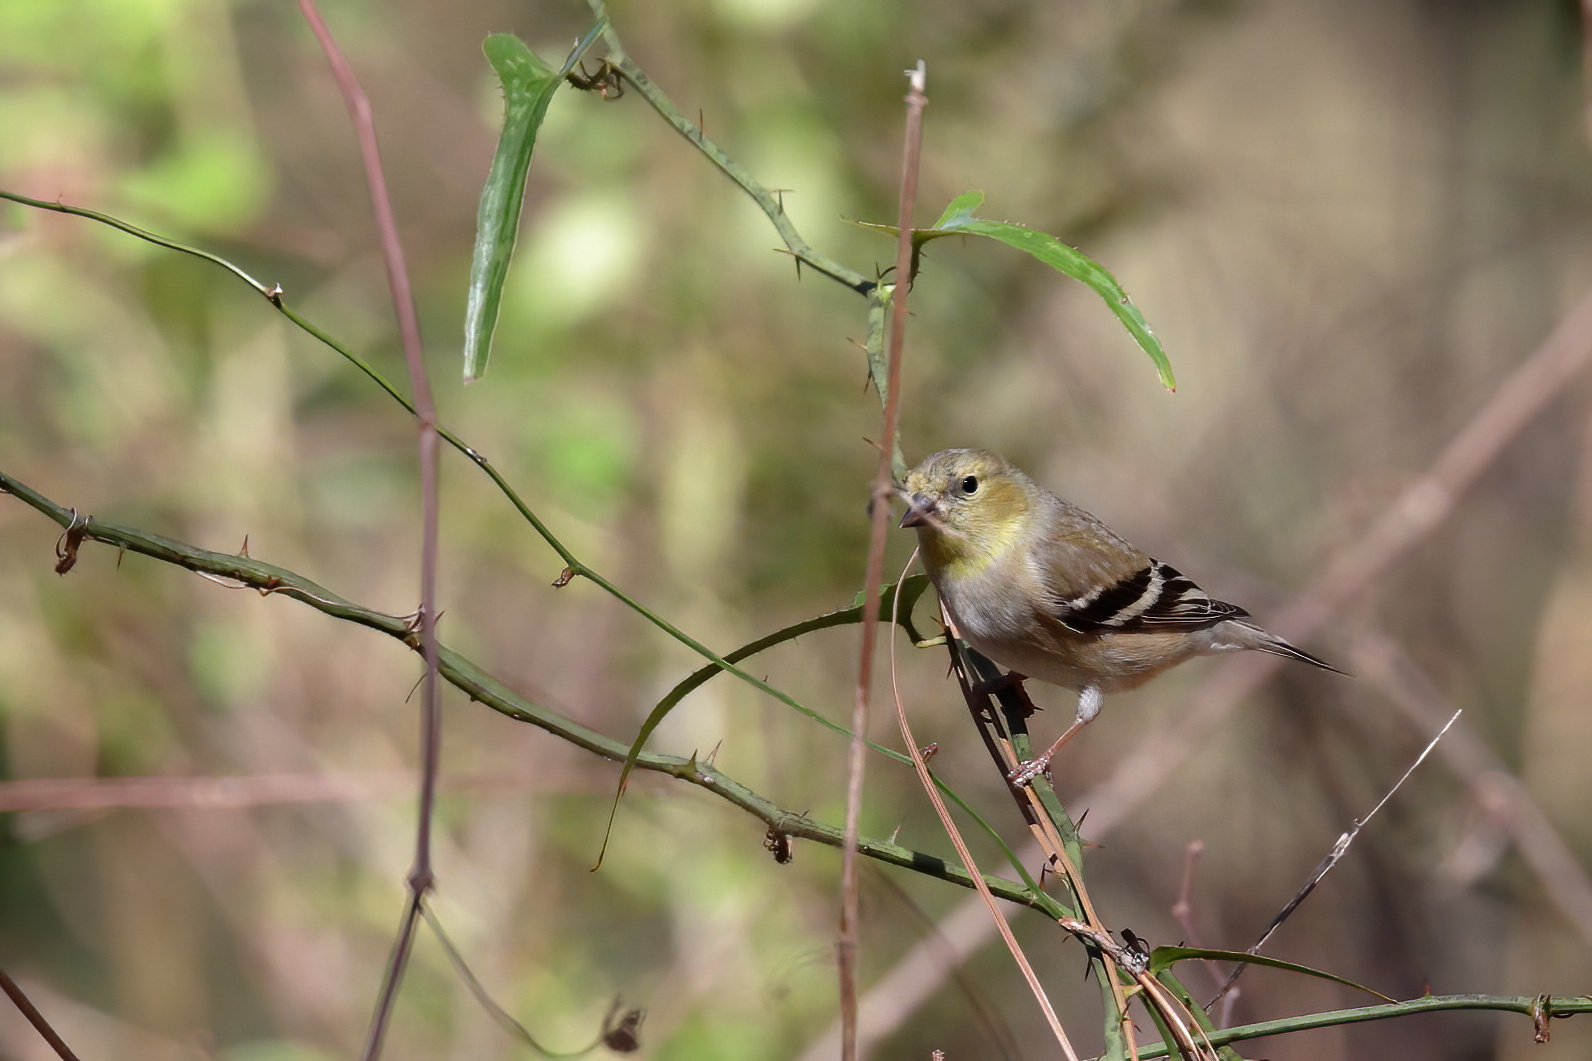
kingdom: Animalia
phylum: Chordata
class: Aves
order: Passeriformes
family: Fringillidae
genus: Spinus
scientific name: Spinus tristis
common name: American goldfinch
